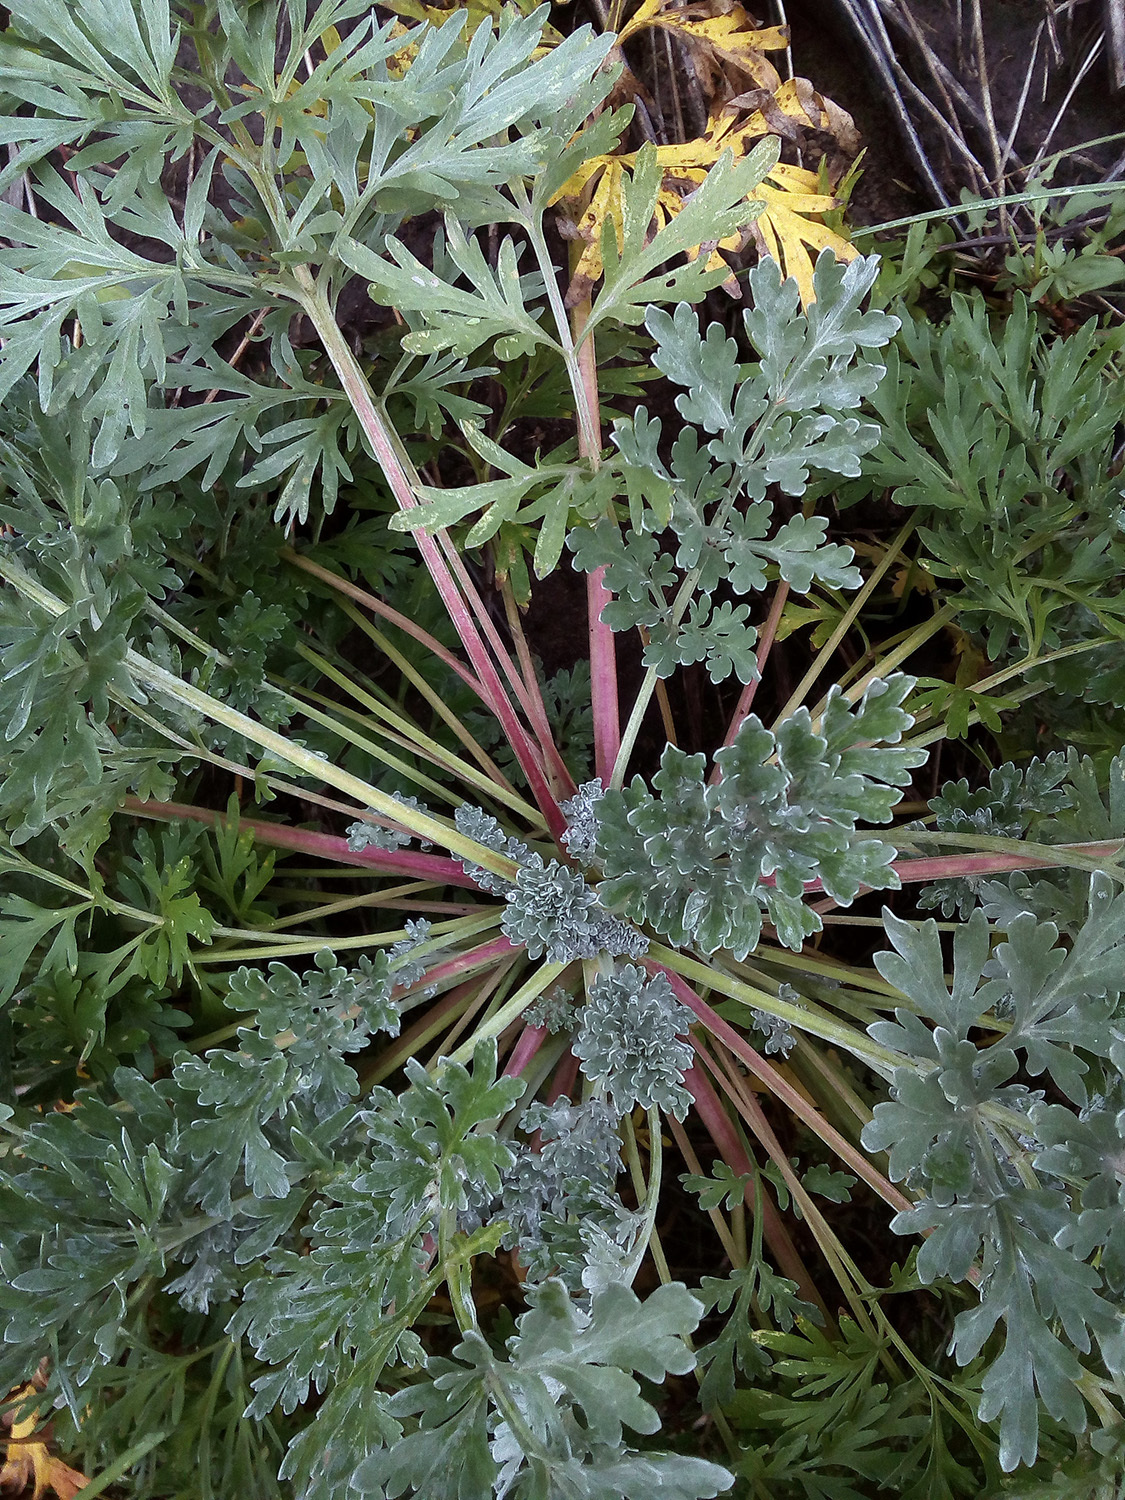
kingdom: Plantae
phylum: Tracheophyta
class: Magnoliopsida
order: Asterales
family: Asteraceae
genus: Artemisia
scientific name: Artemisia absinthium
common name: Wormwood
